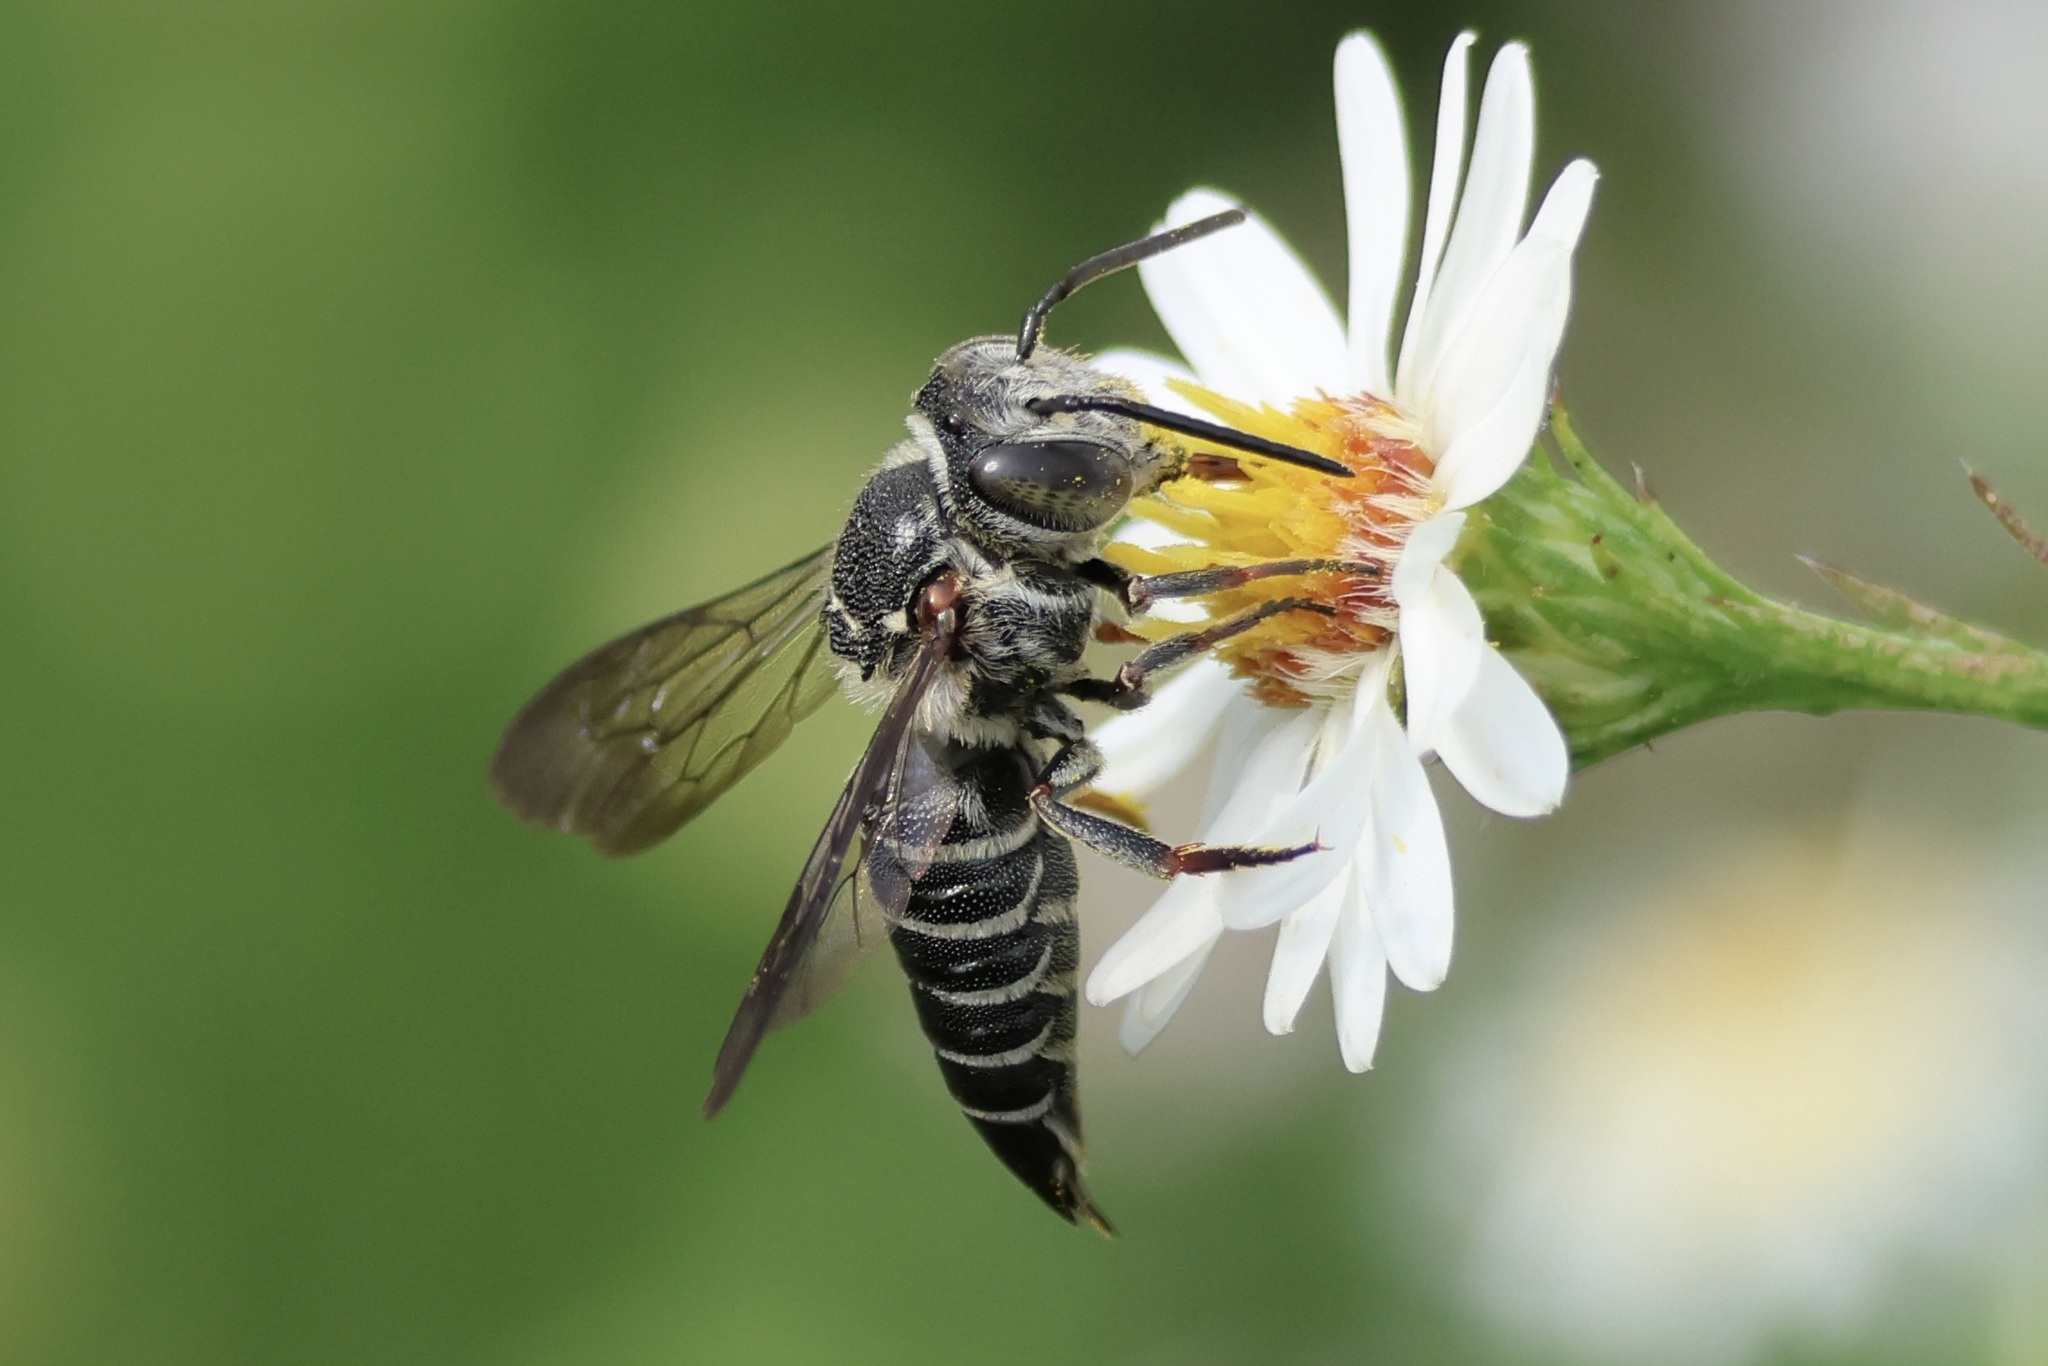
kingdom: Animalia
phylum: Arthropoda
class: Insecta
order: Hymenoptera
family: Megachilidae
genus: Coelioxys
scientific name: Coelioxys sayi
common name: Say's cuckoo leaf-cutter bee
